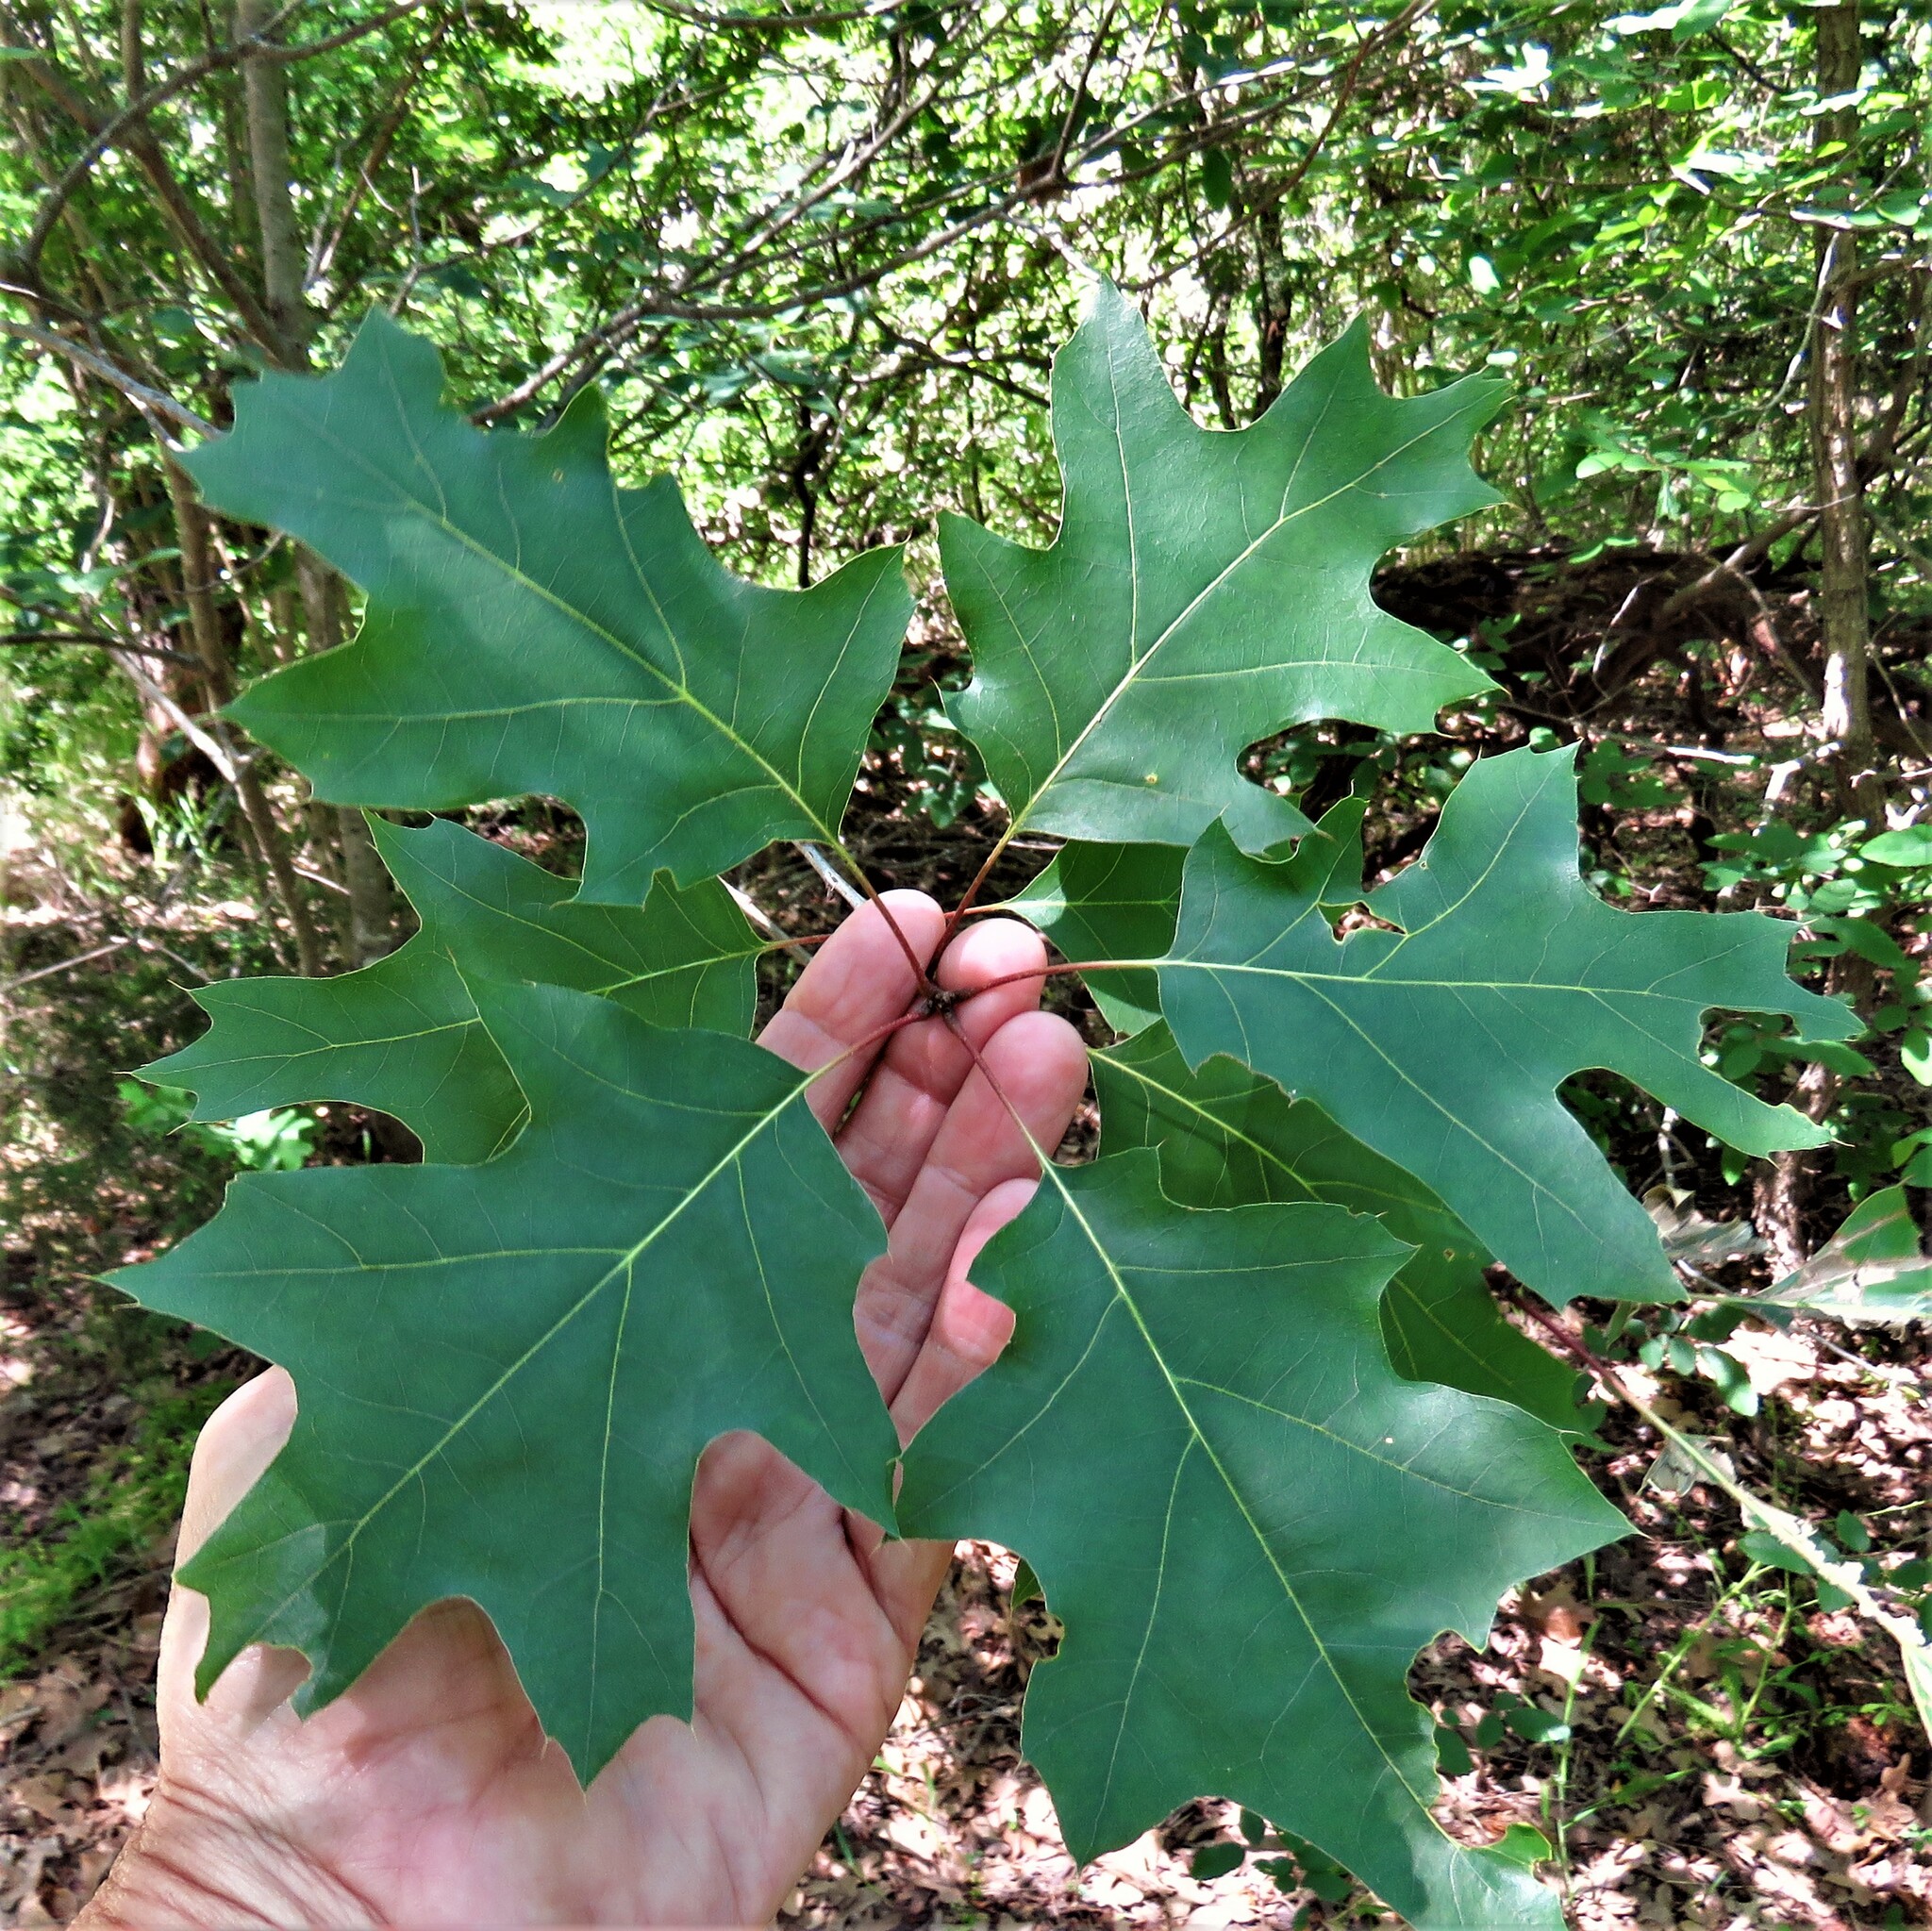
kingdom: Plantae
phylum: Tracheophyta
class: Magnoliopsida
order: Fagales
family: Fagaceae
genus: Quercus
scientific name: Quercus shumardii
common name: Shumard oak
